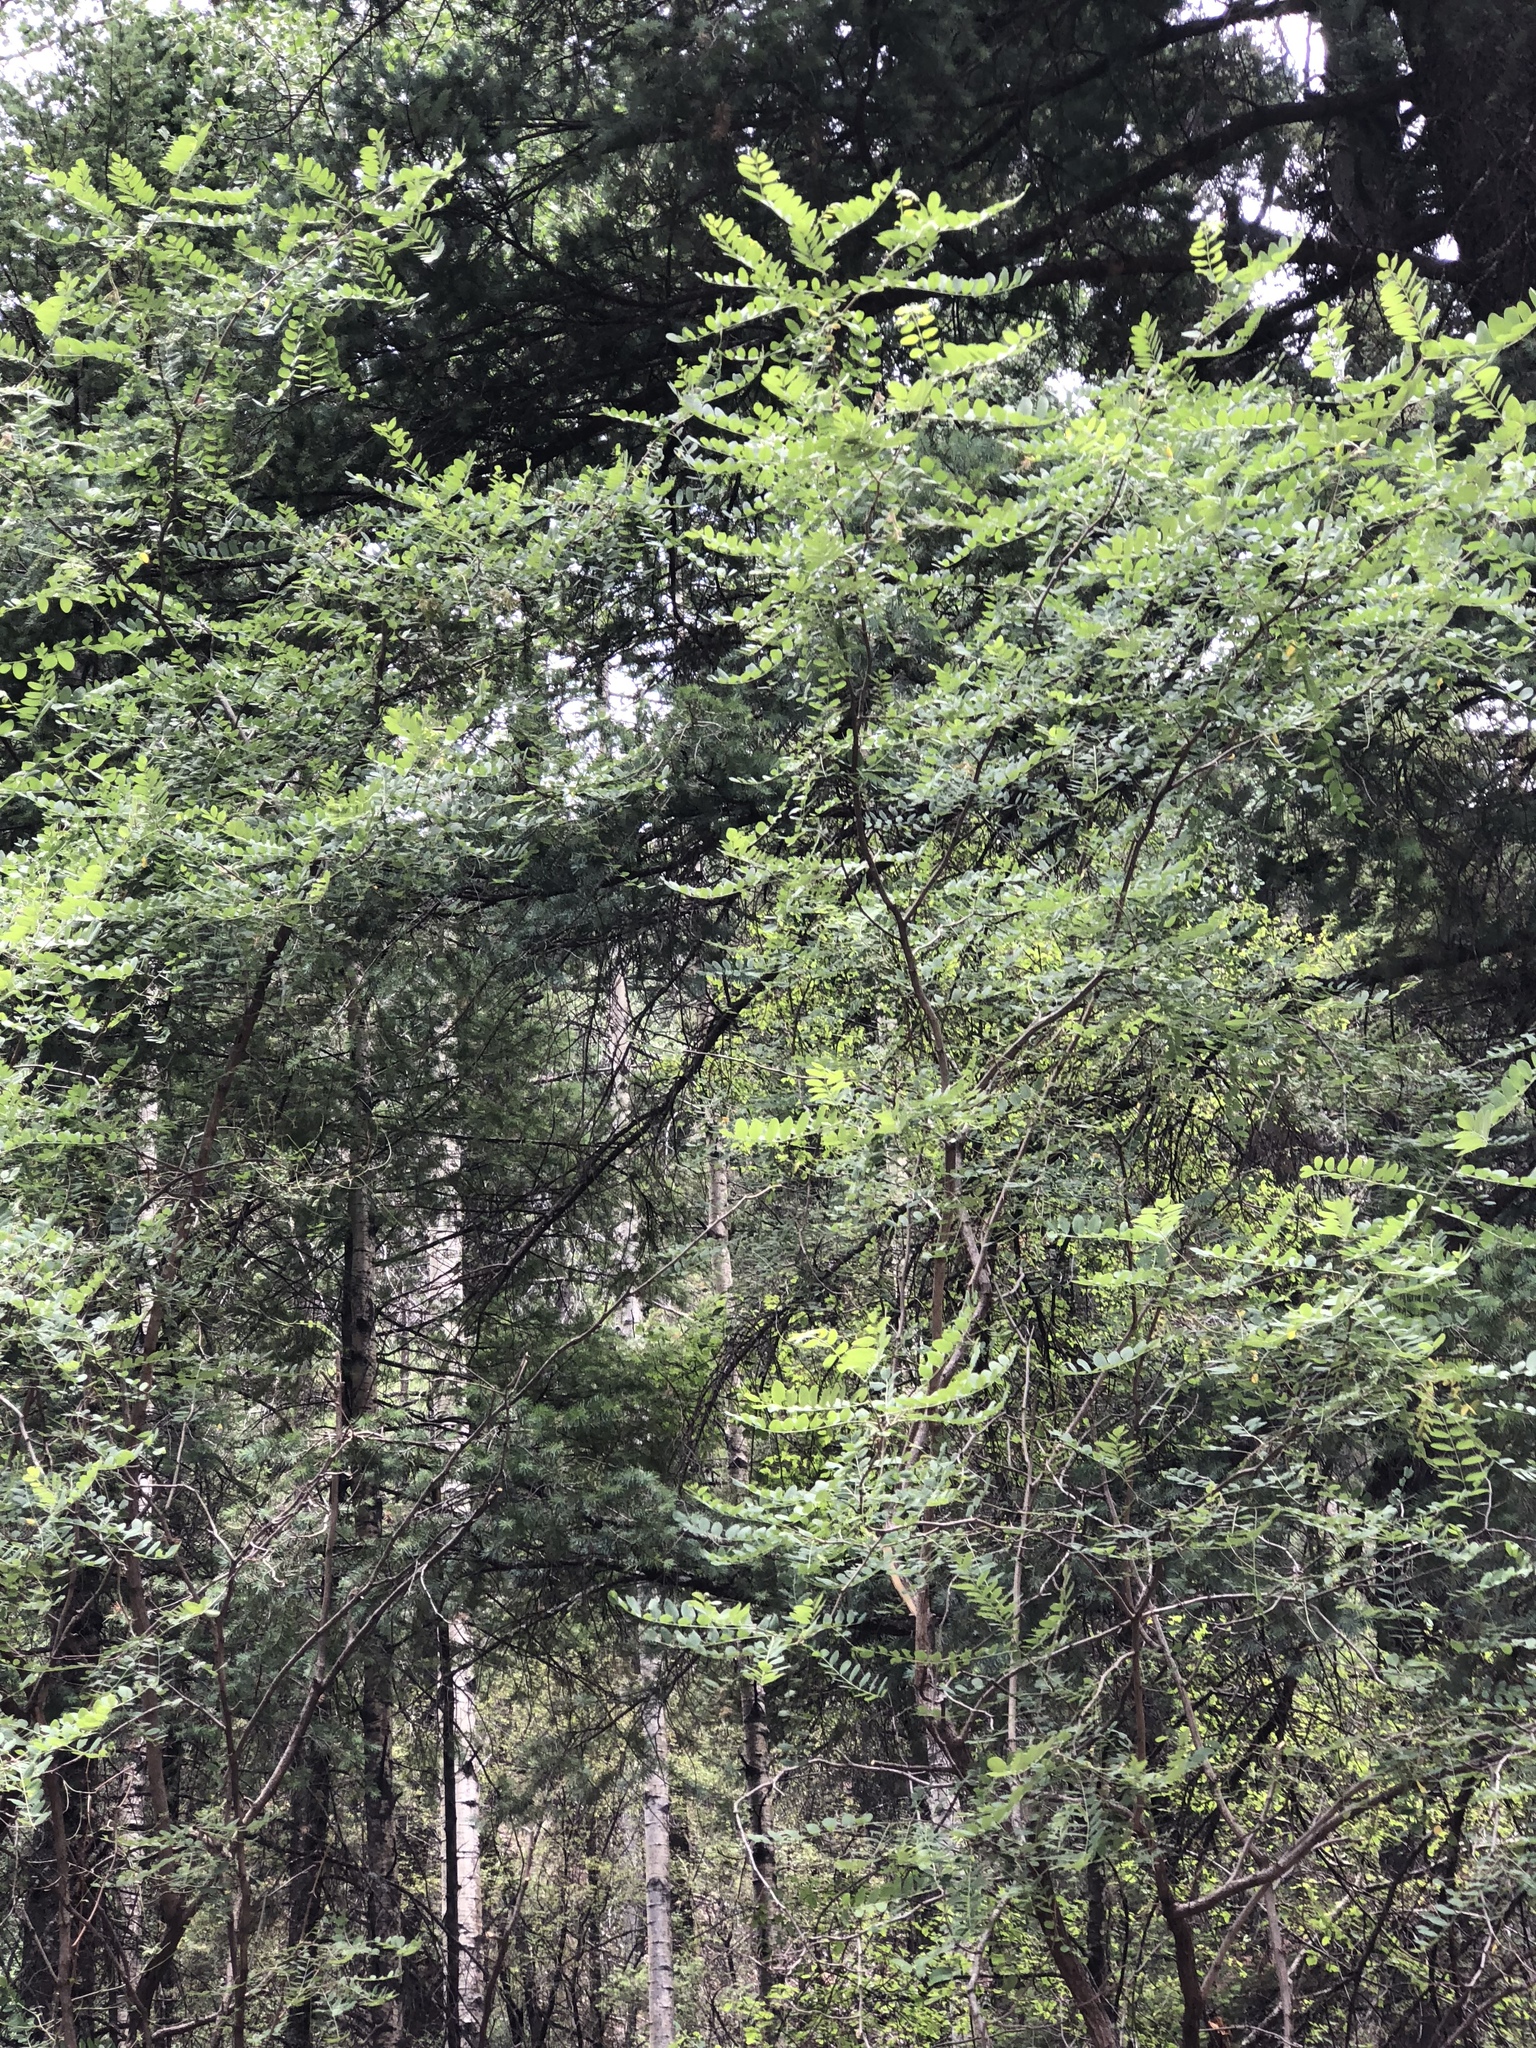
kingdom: Plantae
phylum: Tracheophyta
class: Magnoliopsida
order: Fabales
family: Fabaceae
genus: Robinia
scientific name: Robinia neomexicana
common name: New mexico locust
